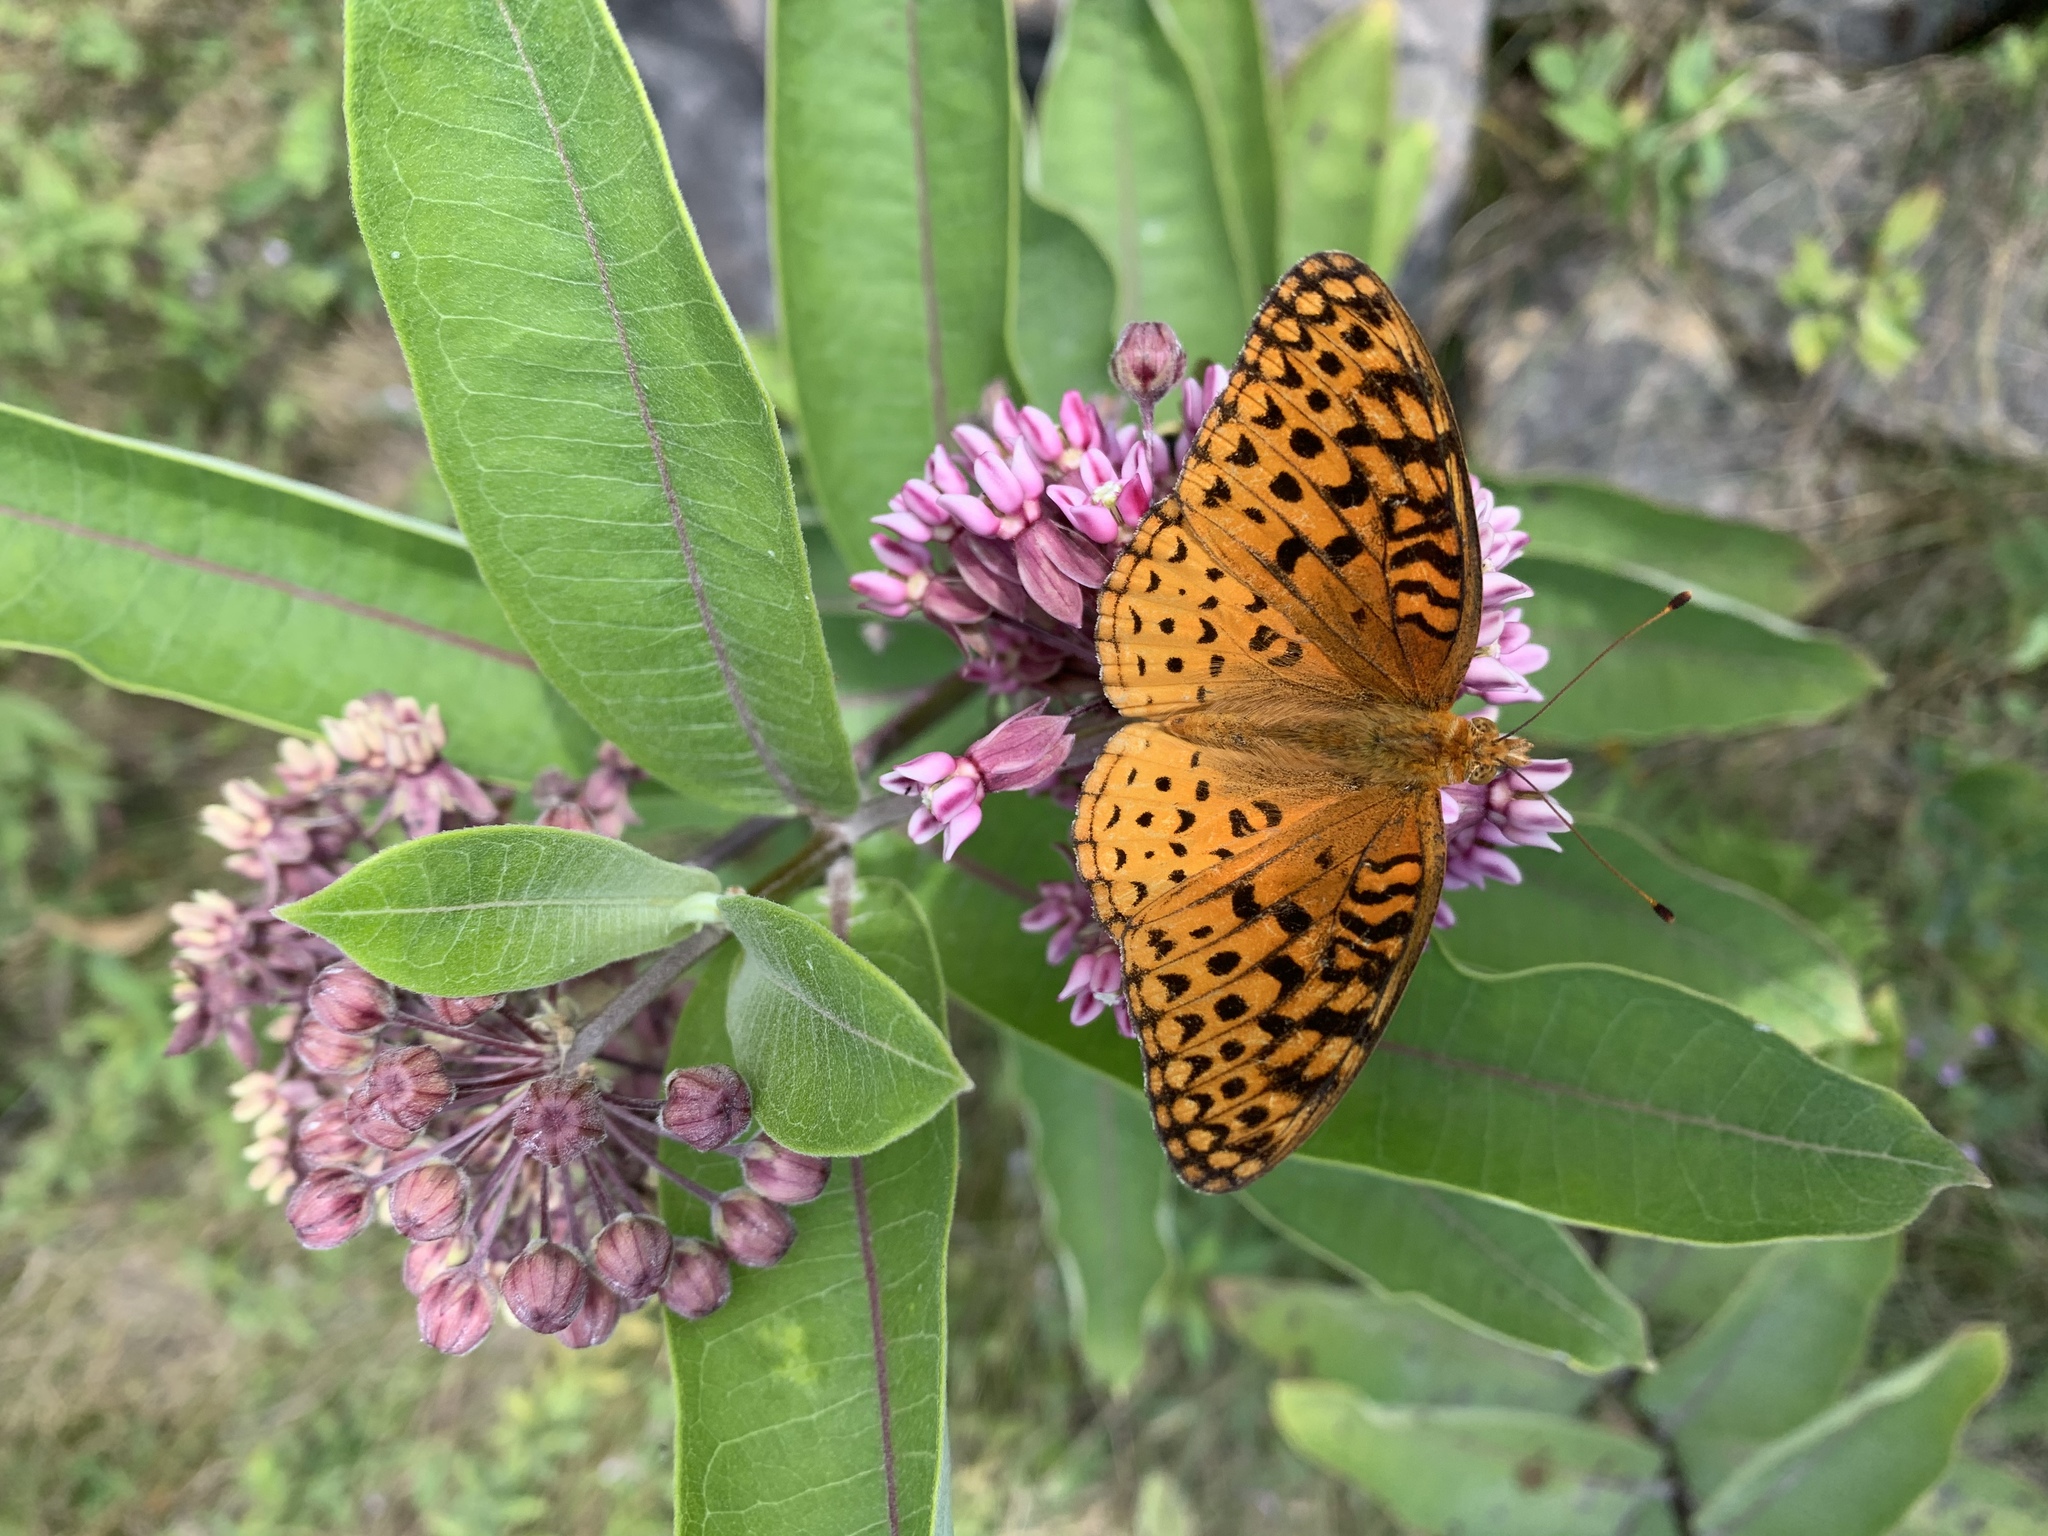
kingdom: Animalia
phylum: Arthropoda
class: Insecta
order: Lepidoptera
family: Nymphalidae
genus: Speyeria
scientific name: Speyeria aphrodite
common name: Aphrodite friitllary
